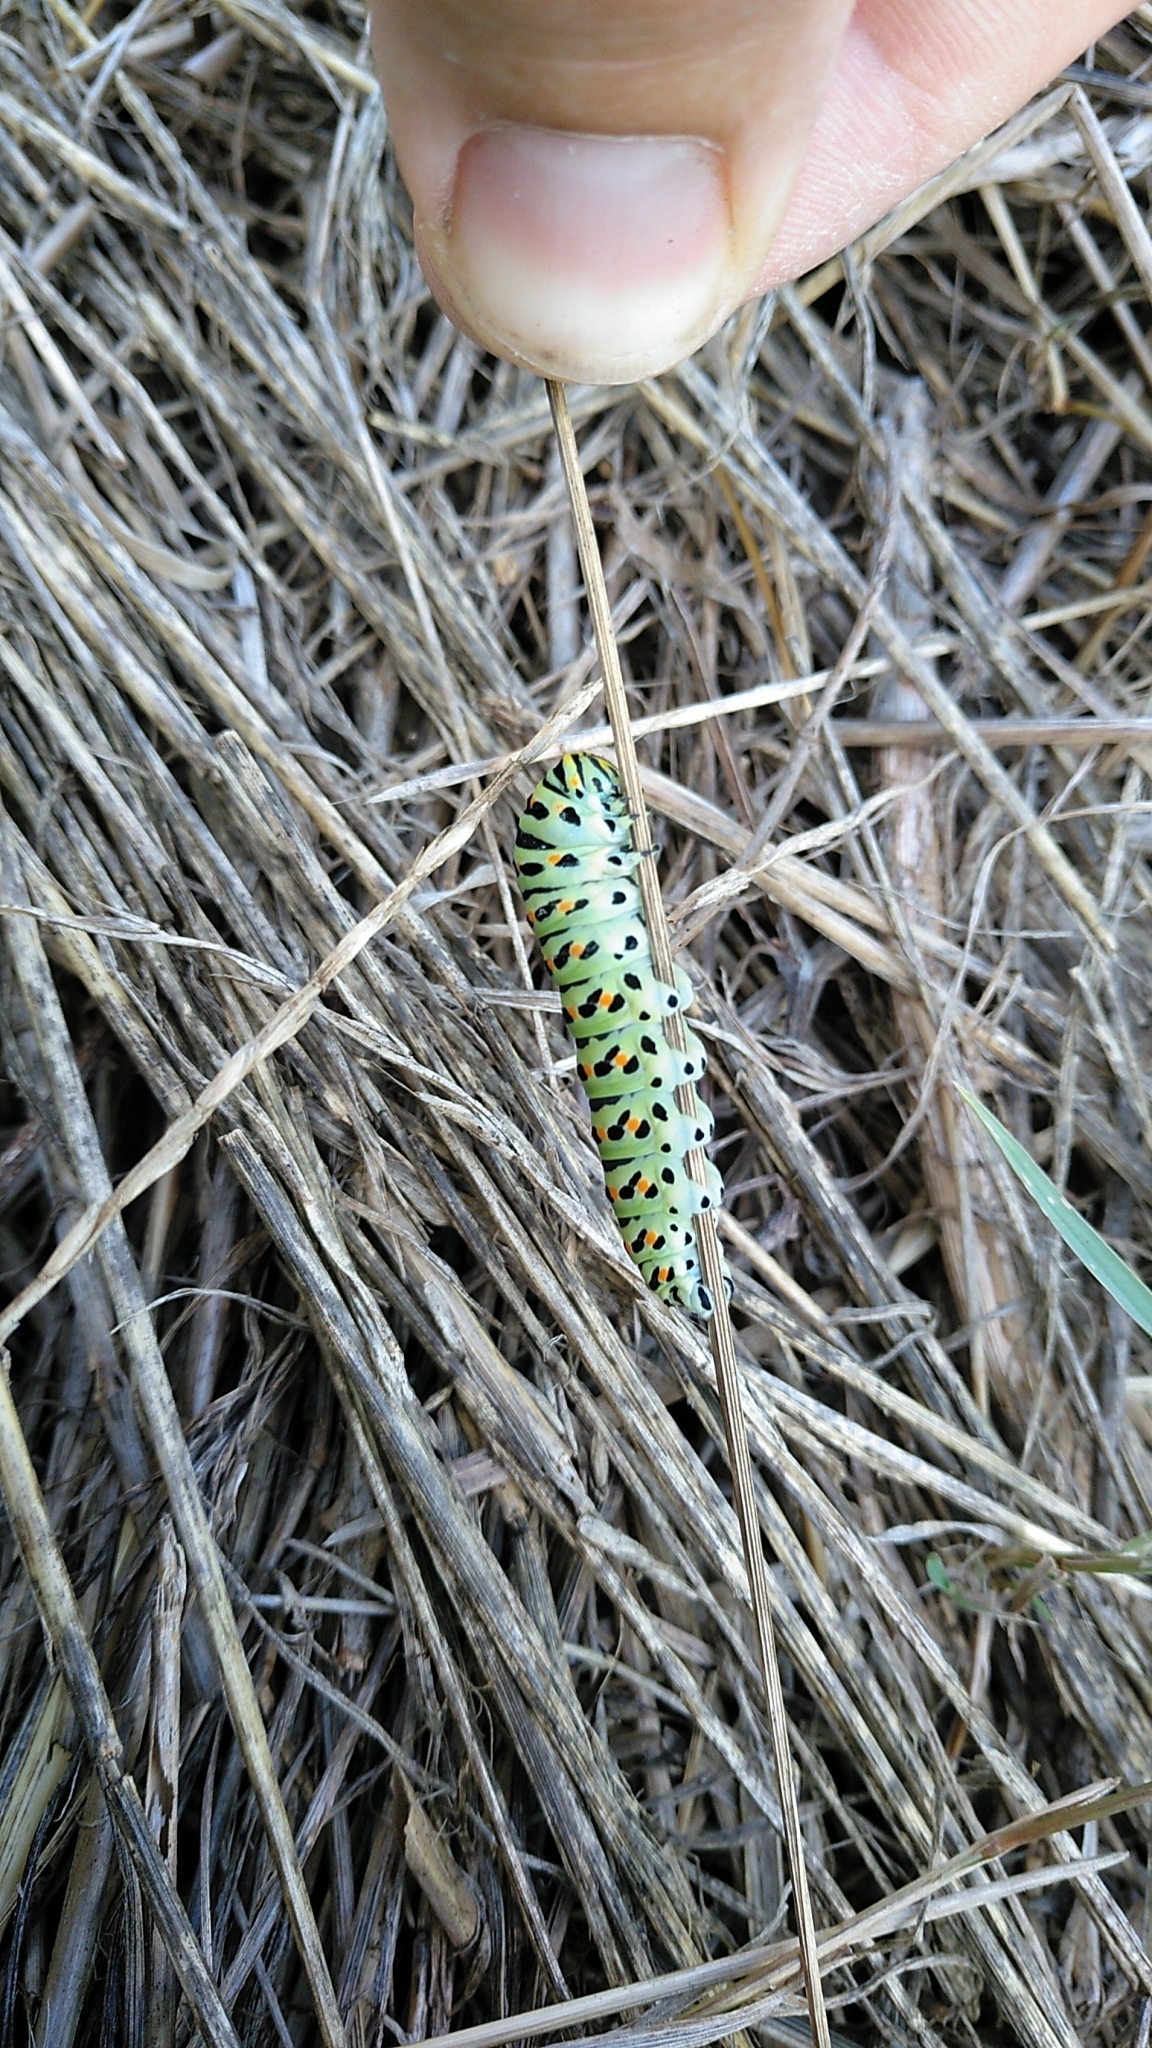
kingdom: Animalia
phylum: Arthropoda
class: Insecta
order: Lepidoptera
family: Papilionidae
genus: Papilio
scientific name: Papilio machaon
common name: Swallowtail
